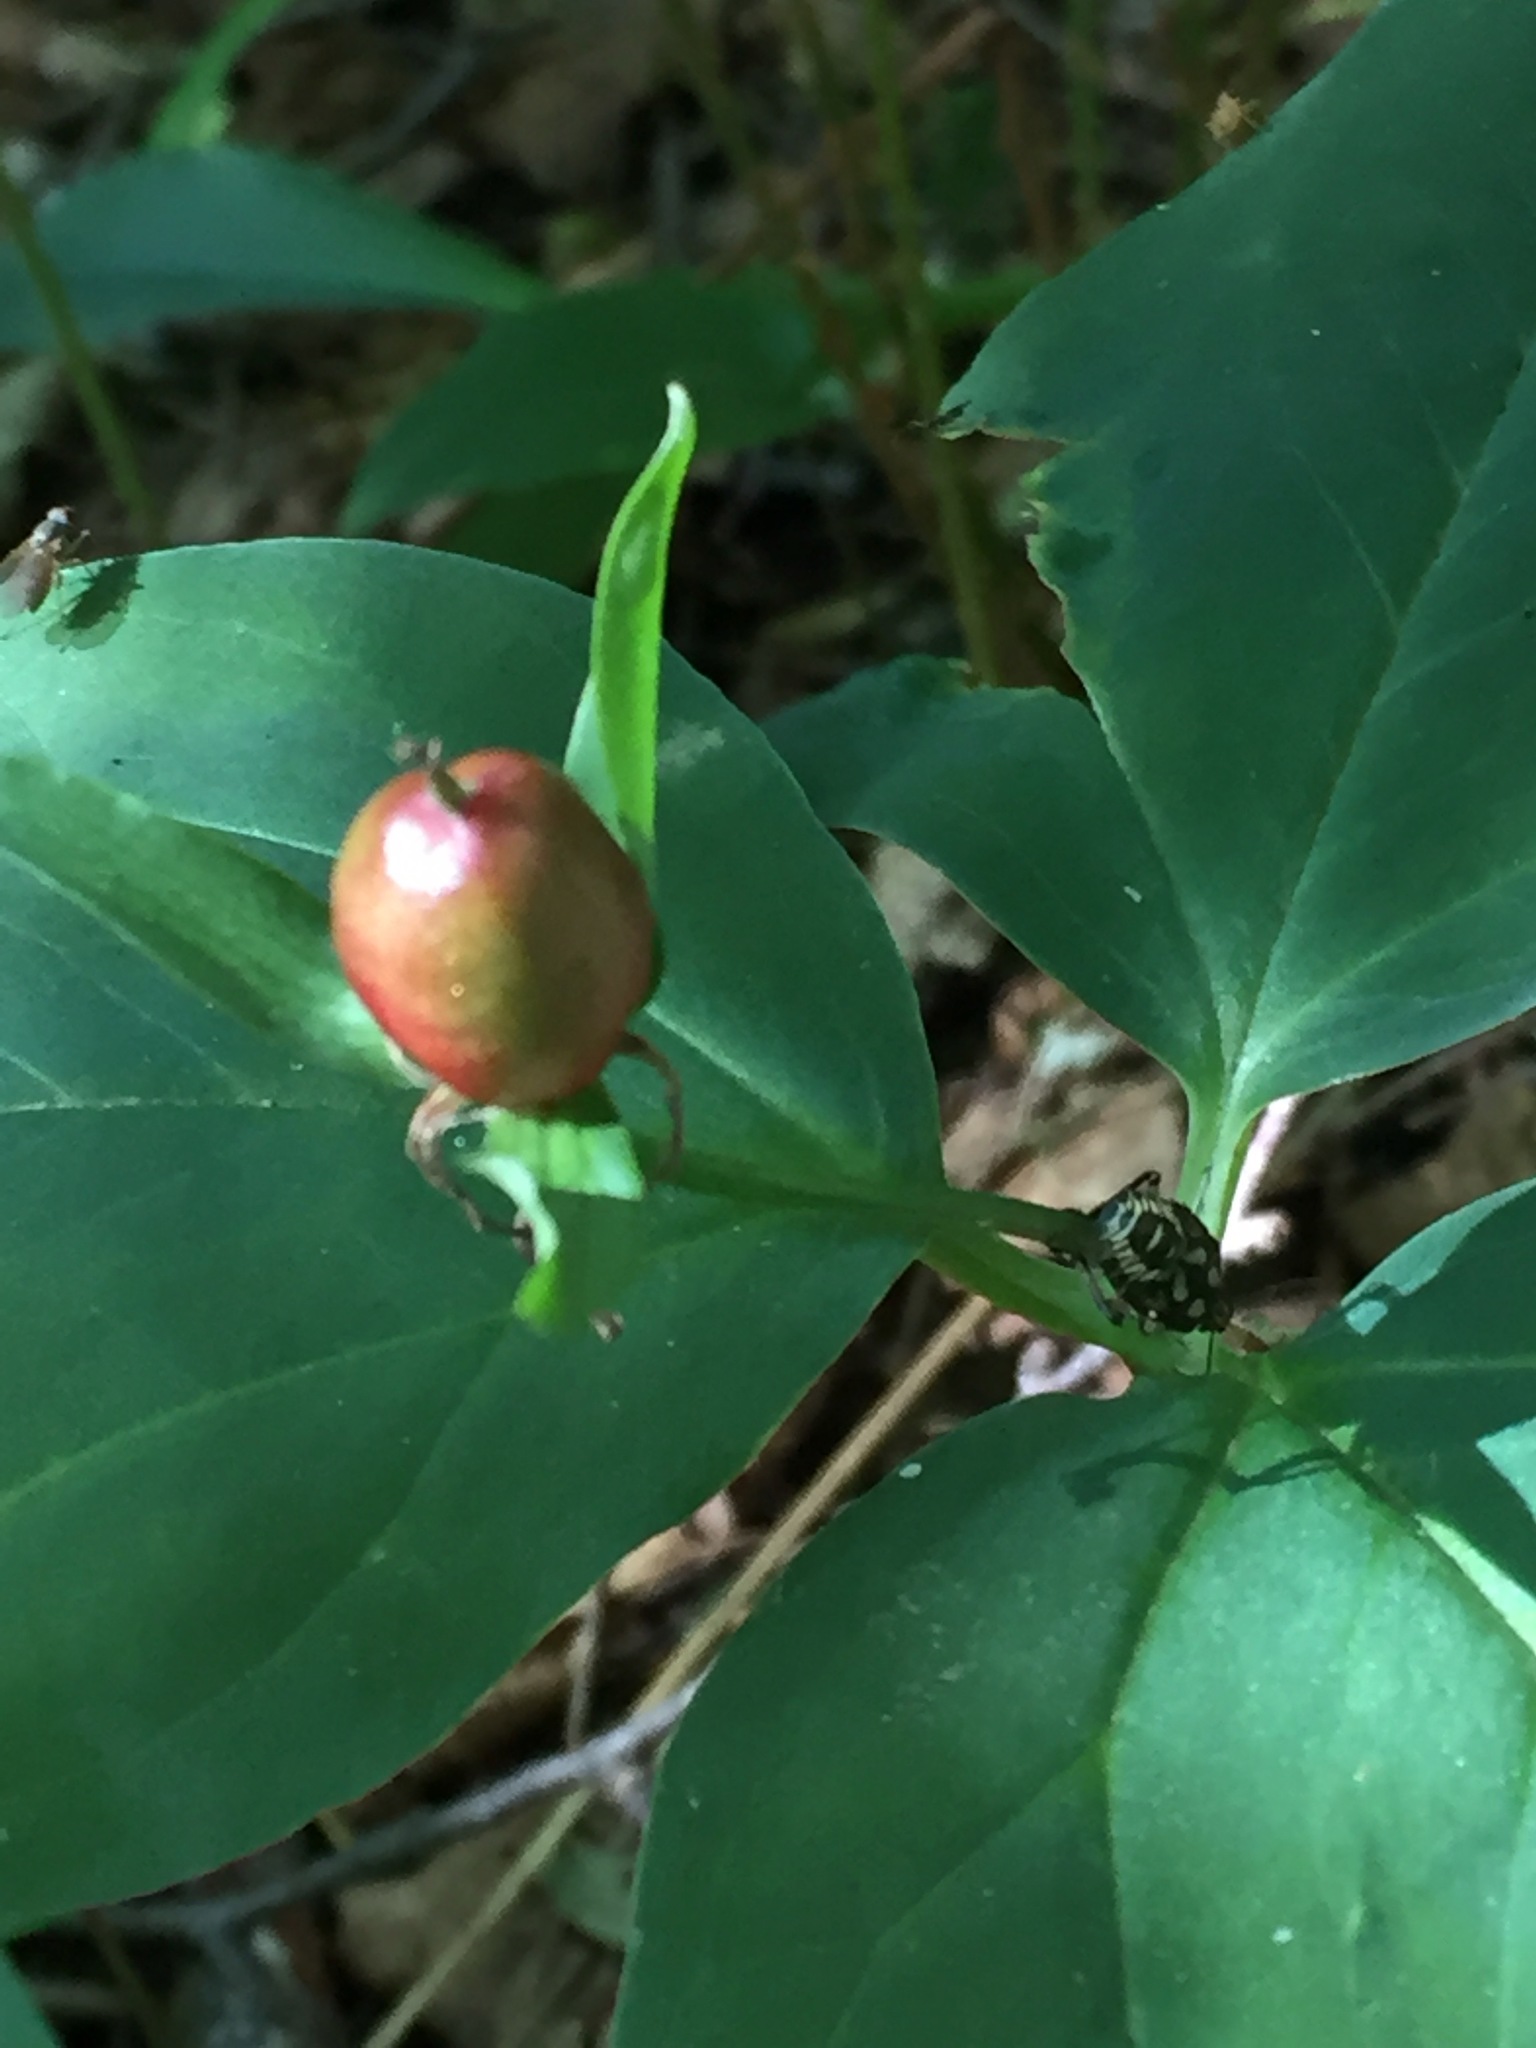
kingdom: Plantae
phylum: Tracheophyta
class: Liliopsida
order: Liliales
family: Melanthiaceae
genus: Trillium
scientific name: Trillium undulatum
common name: Paint trillium
